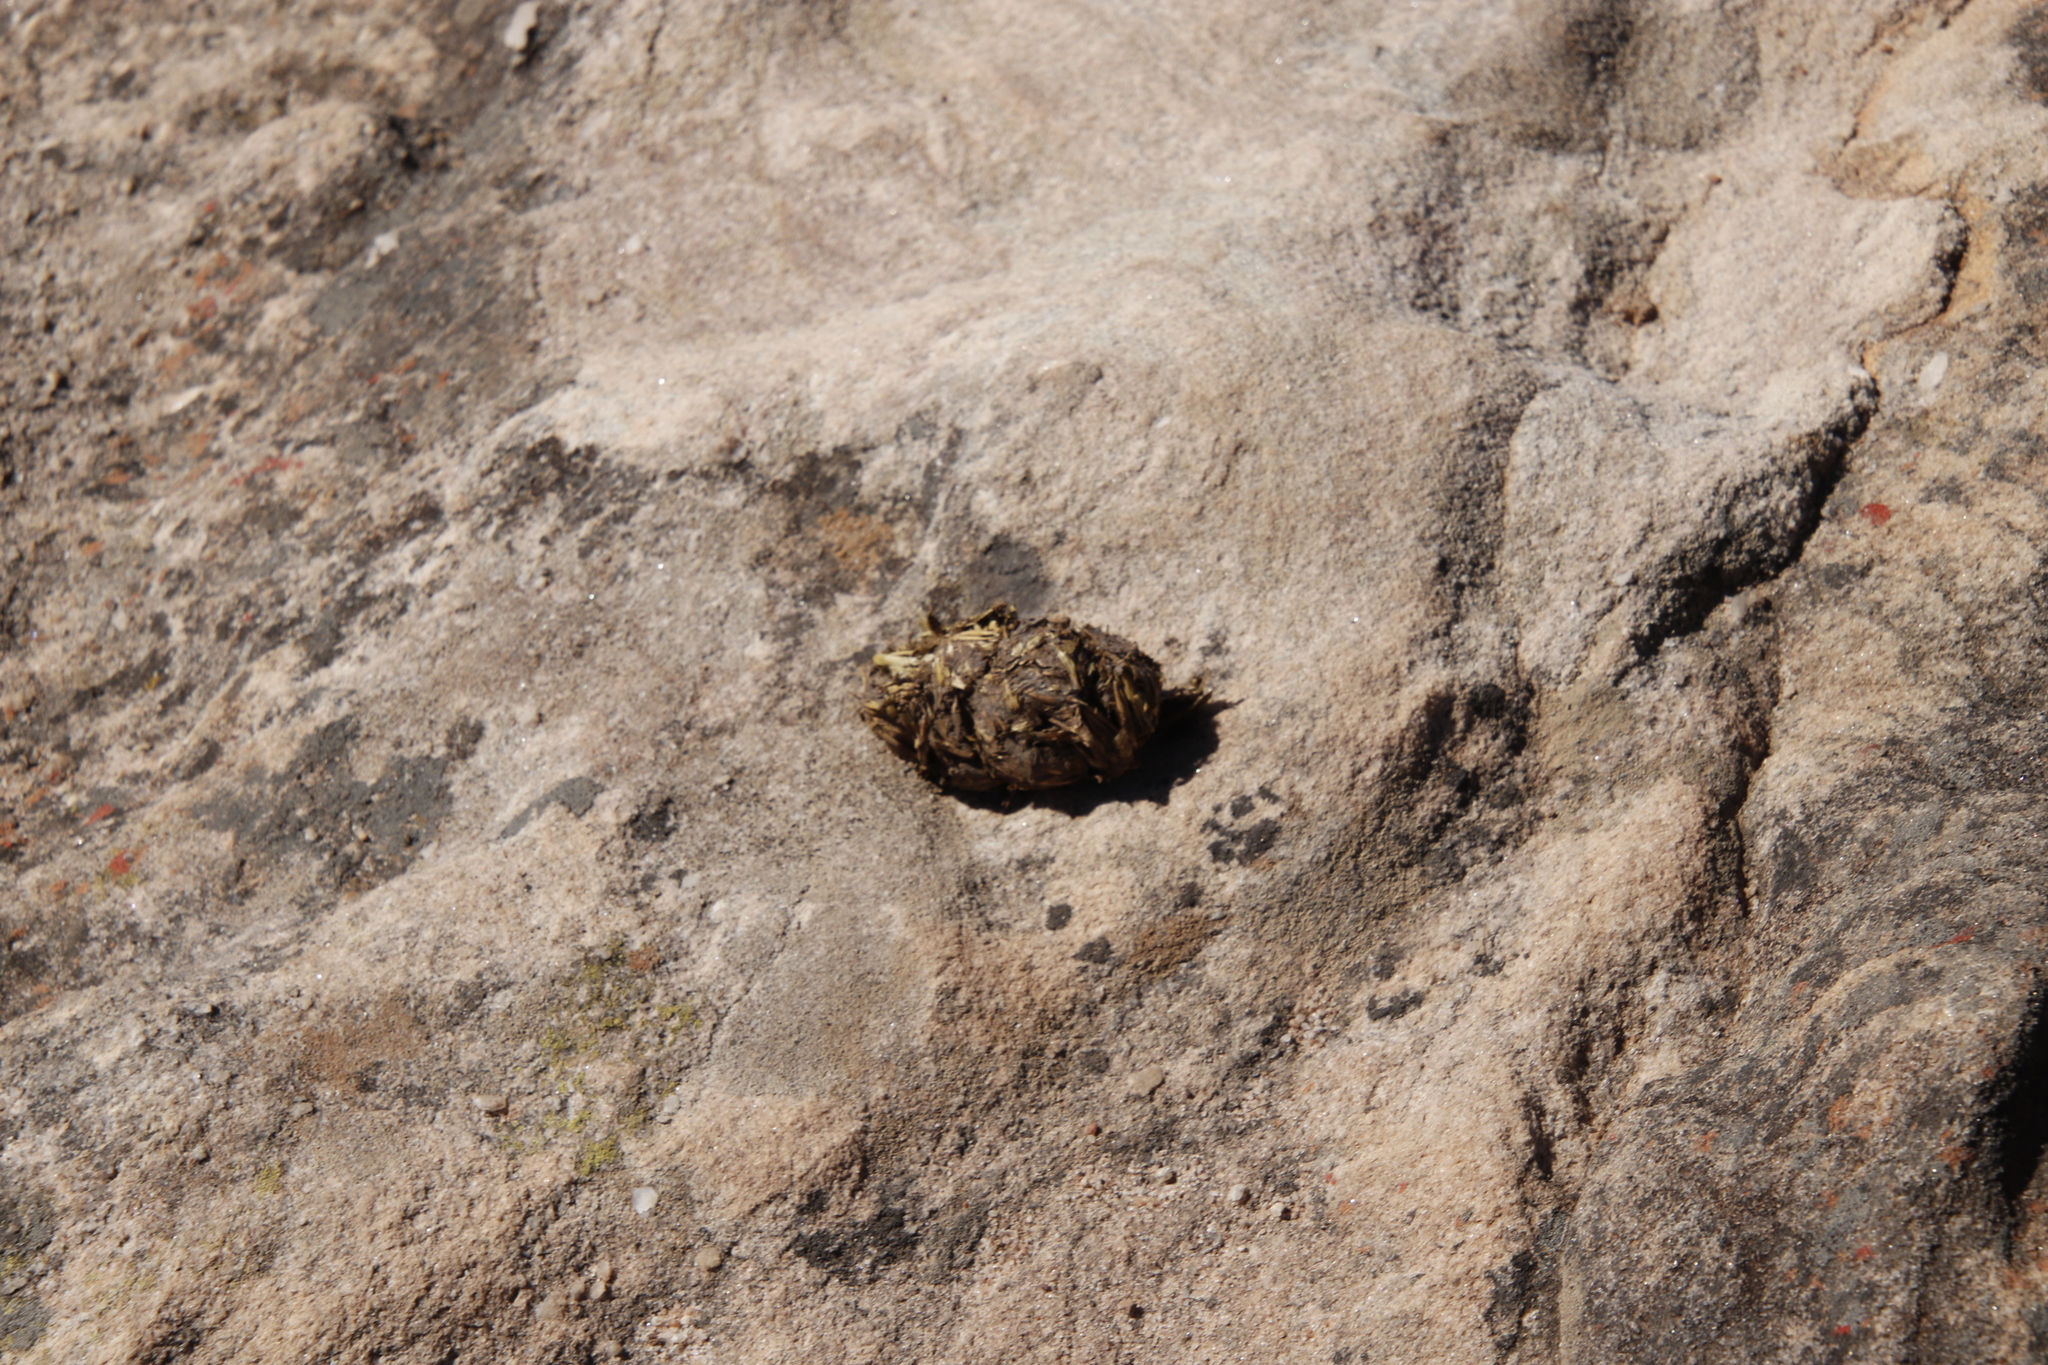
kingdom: Animalia
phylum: Chordata
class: Mammalia
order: Primates
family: Cercopithecidae
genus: Papio
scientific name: Papio ursinus
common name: Chacma baboon
